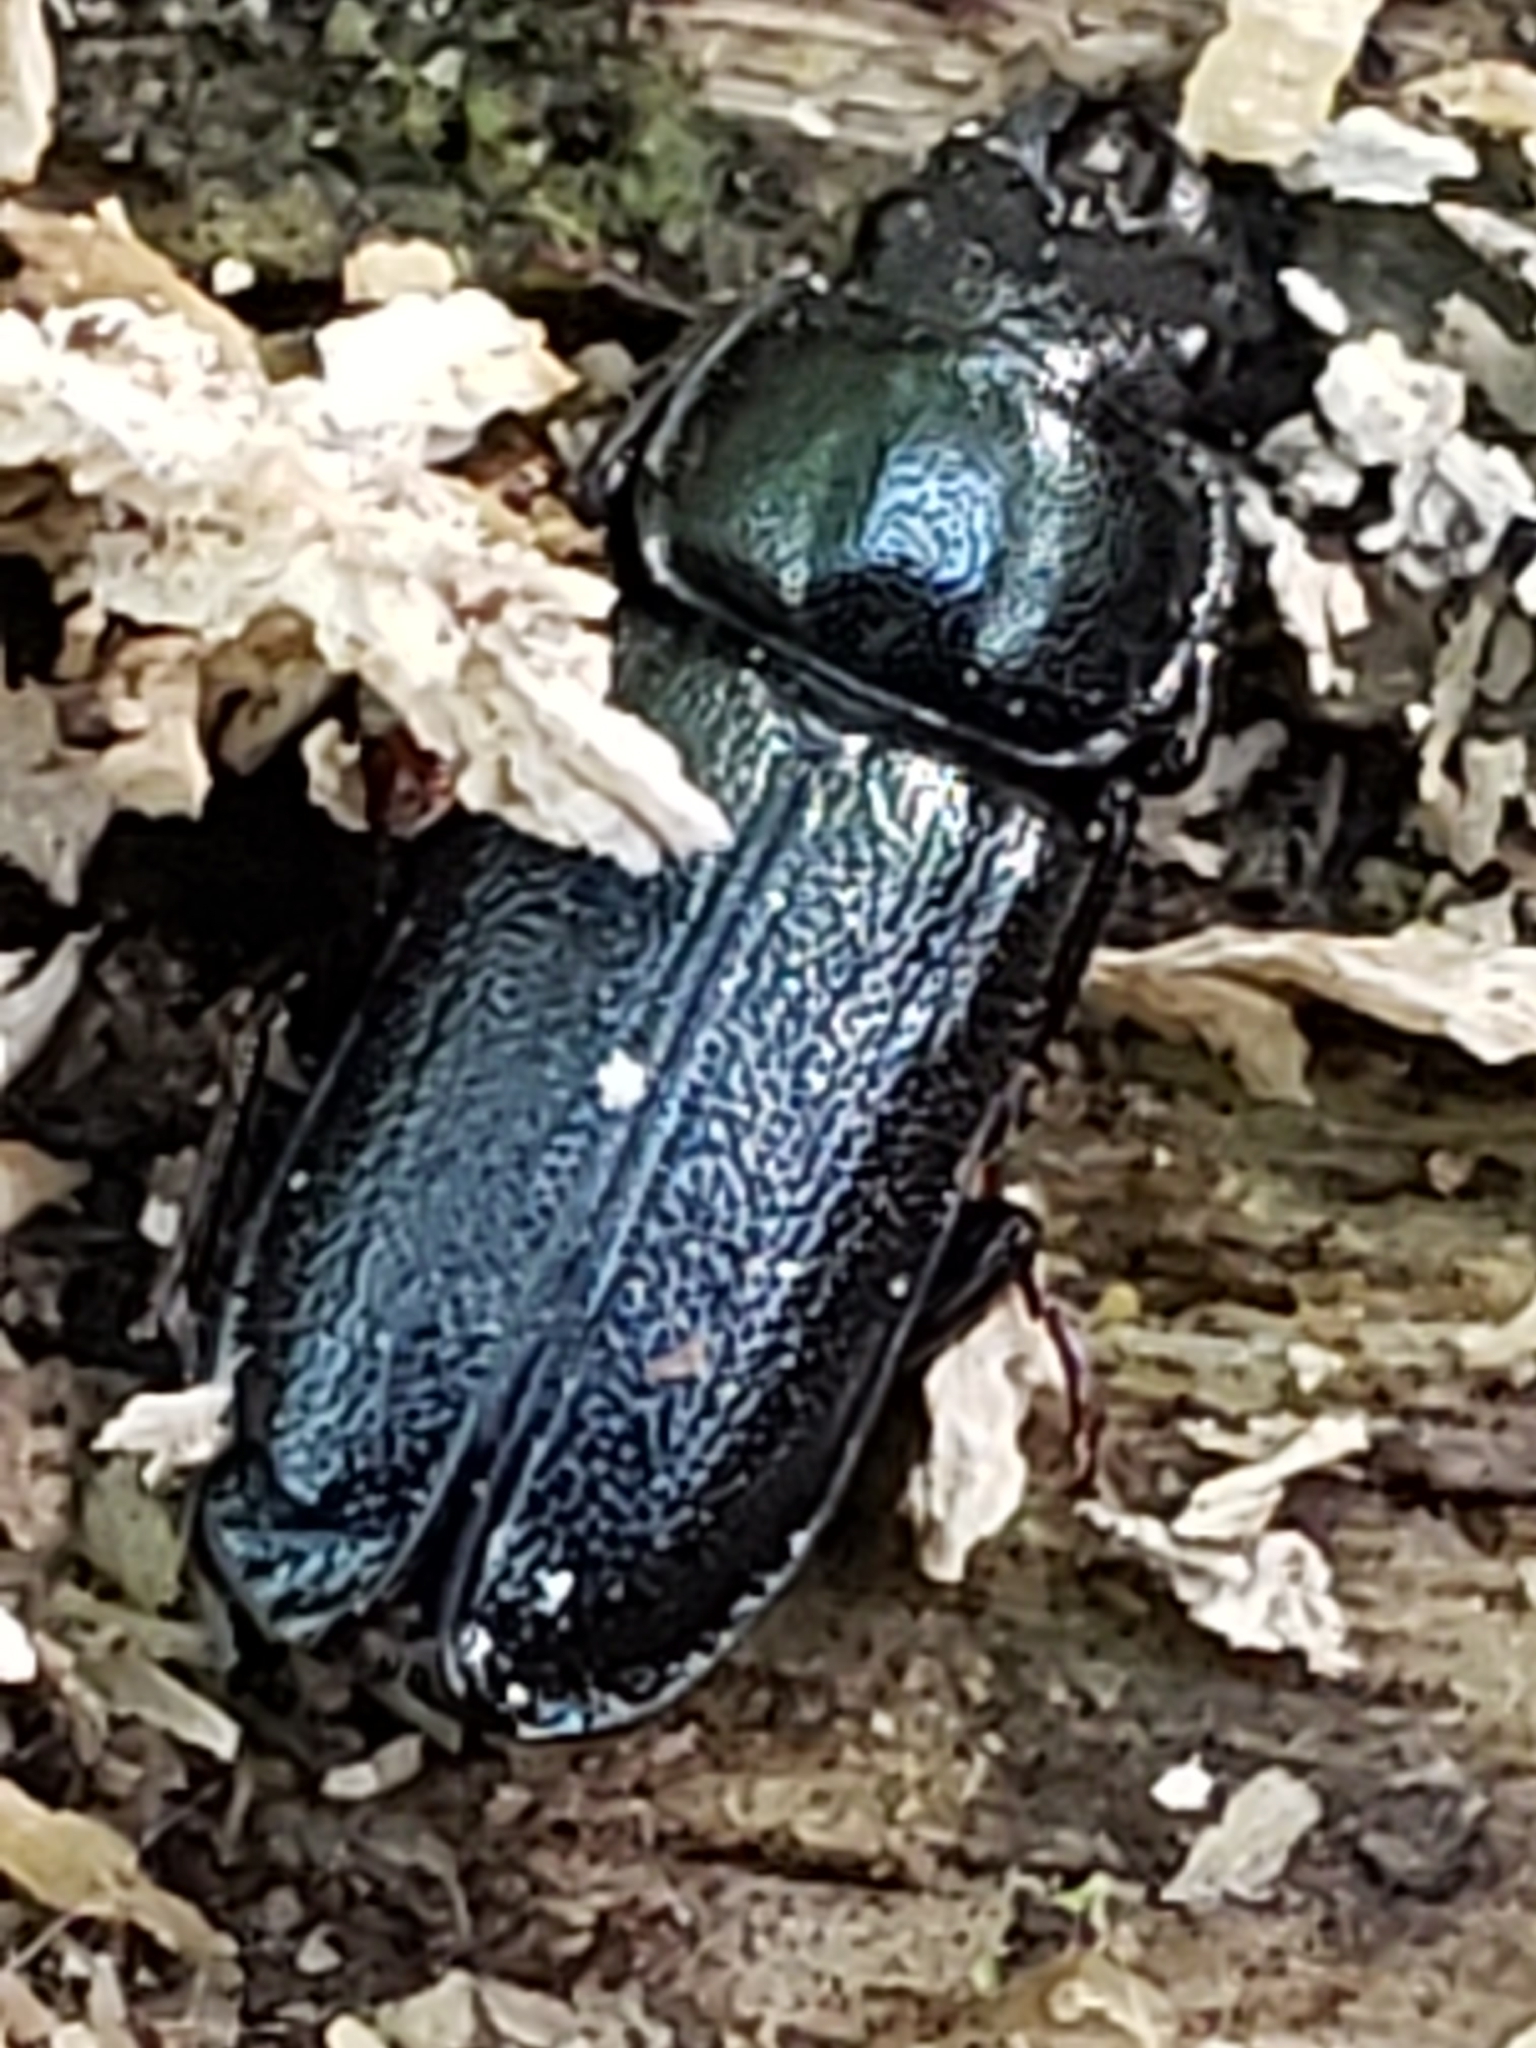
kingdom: Animalia
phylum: Arthropoda
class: Insecta
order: Coleoptera
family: Lucanidae
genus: Platycerus
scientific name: Platycerus quercus
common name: Oak stag beetle
